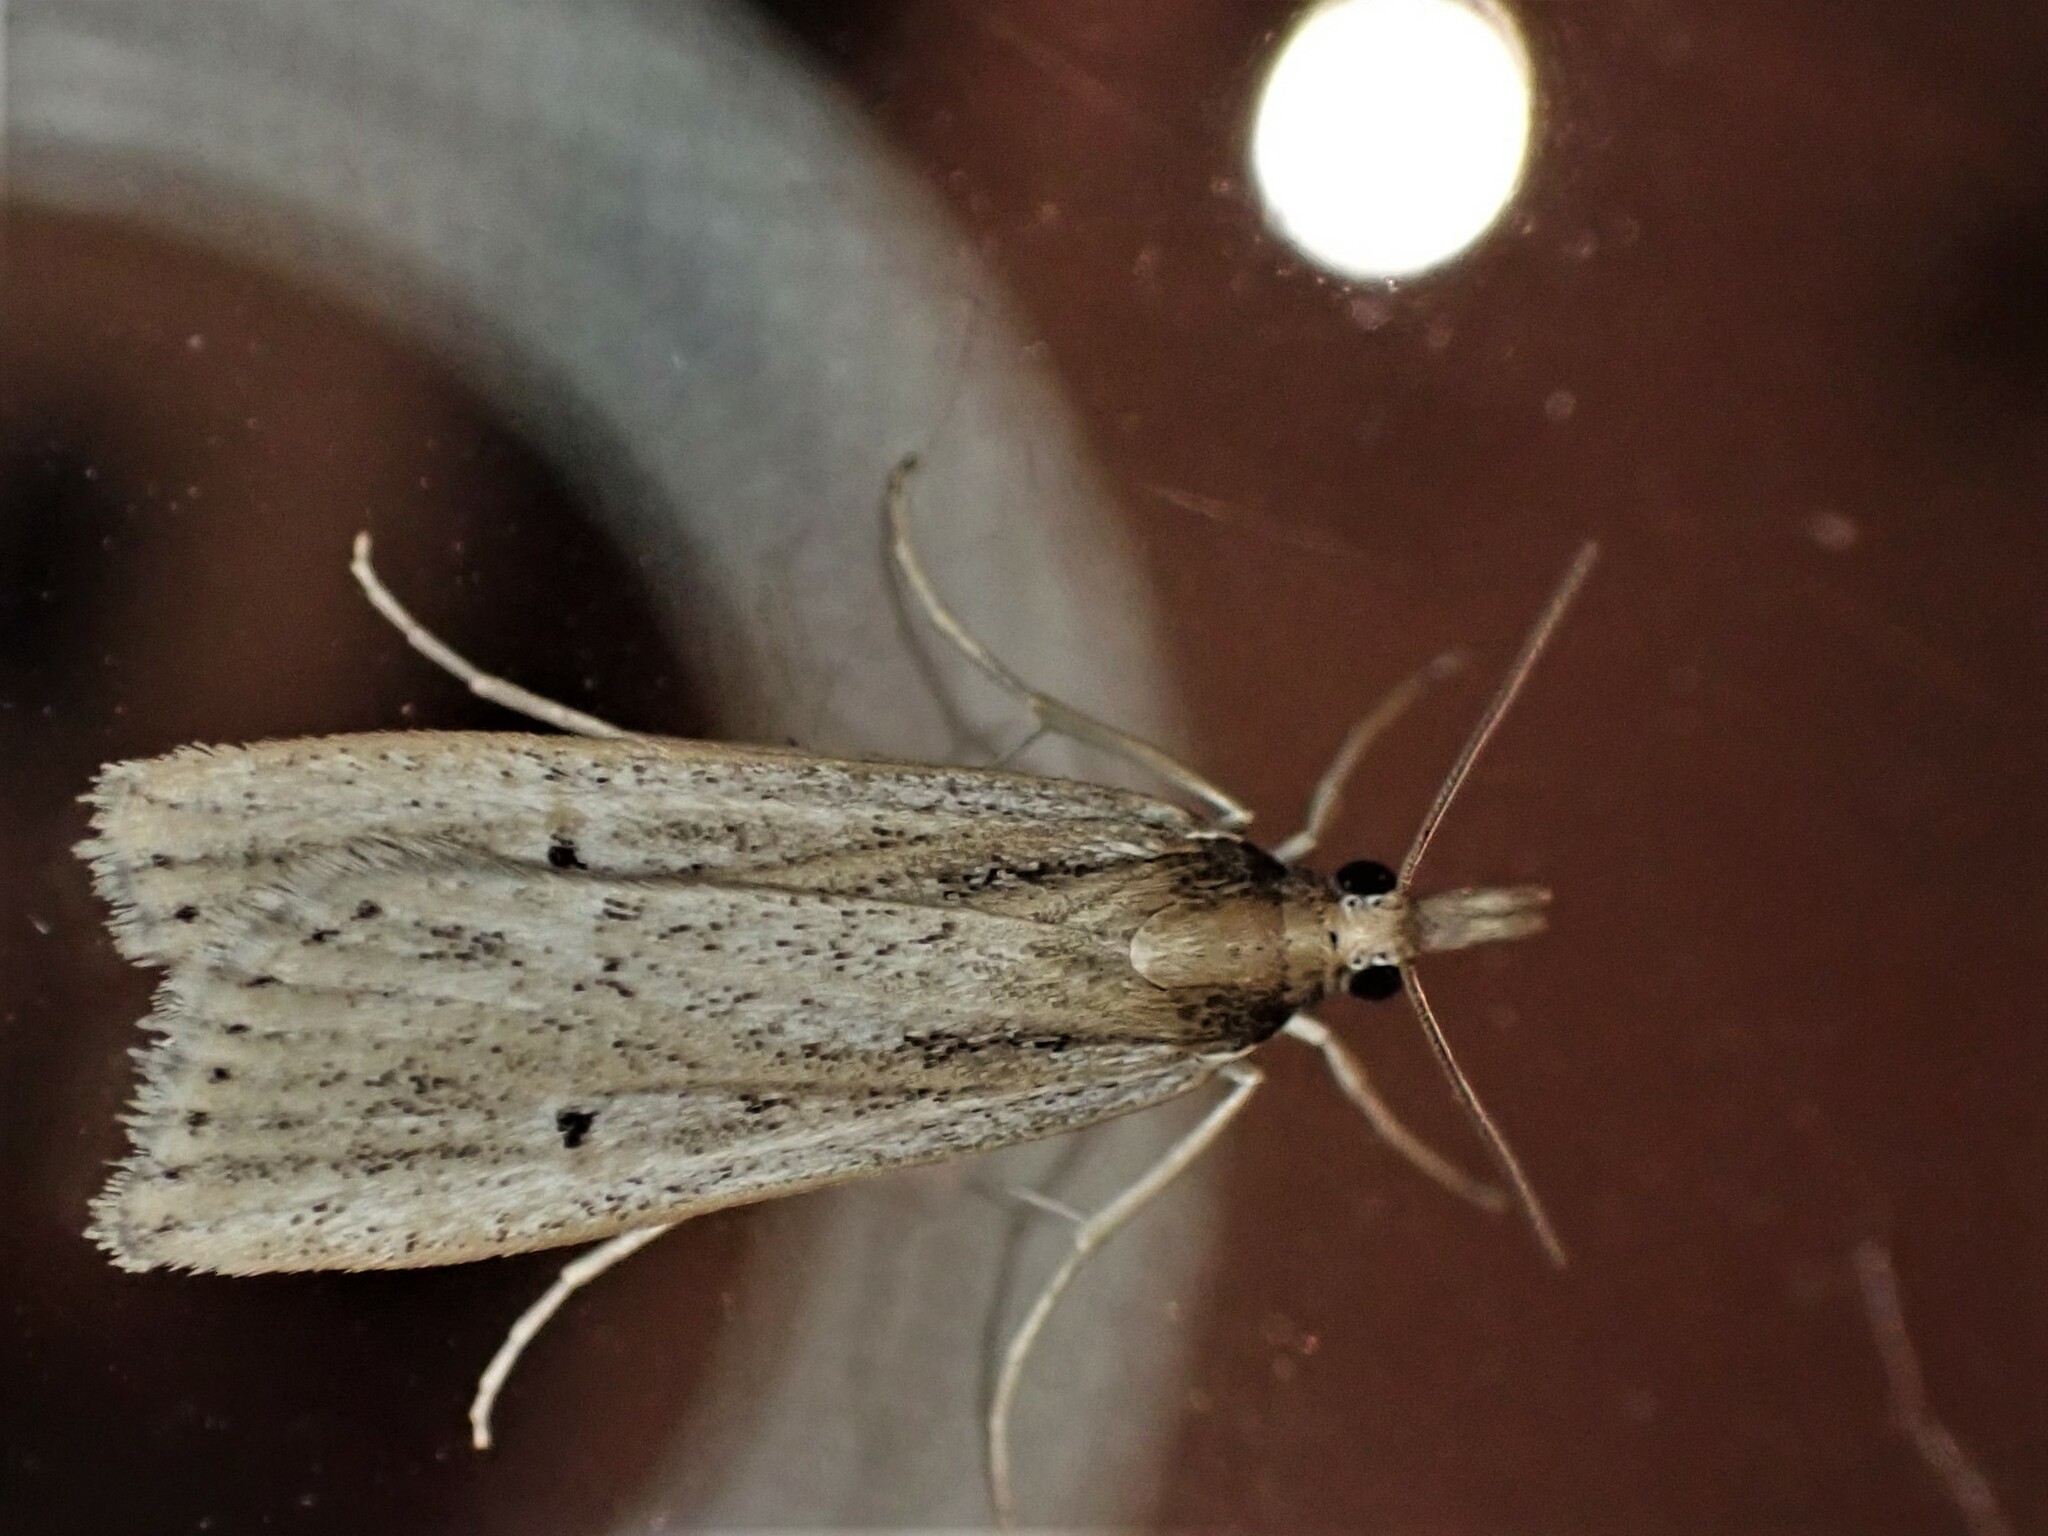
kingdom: Animalia
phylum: Arthropoda
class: Insecta
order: Lepidoptera
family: Crambidae
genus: Eudonia
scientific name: Eudonia sabulosella
